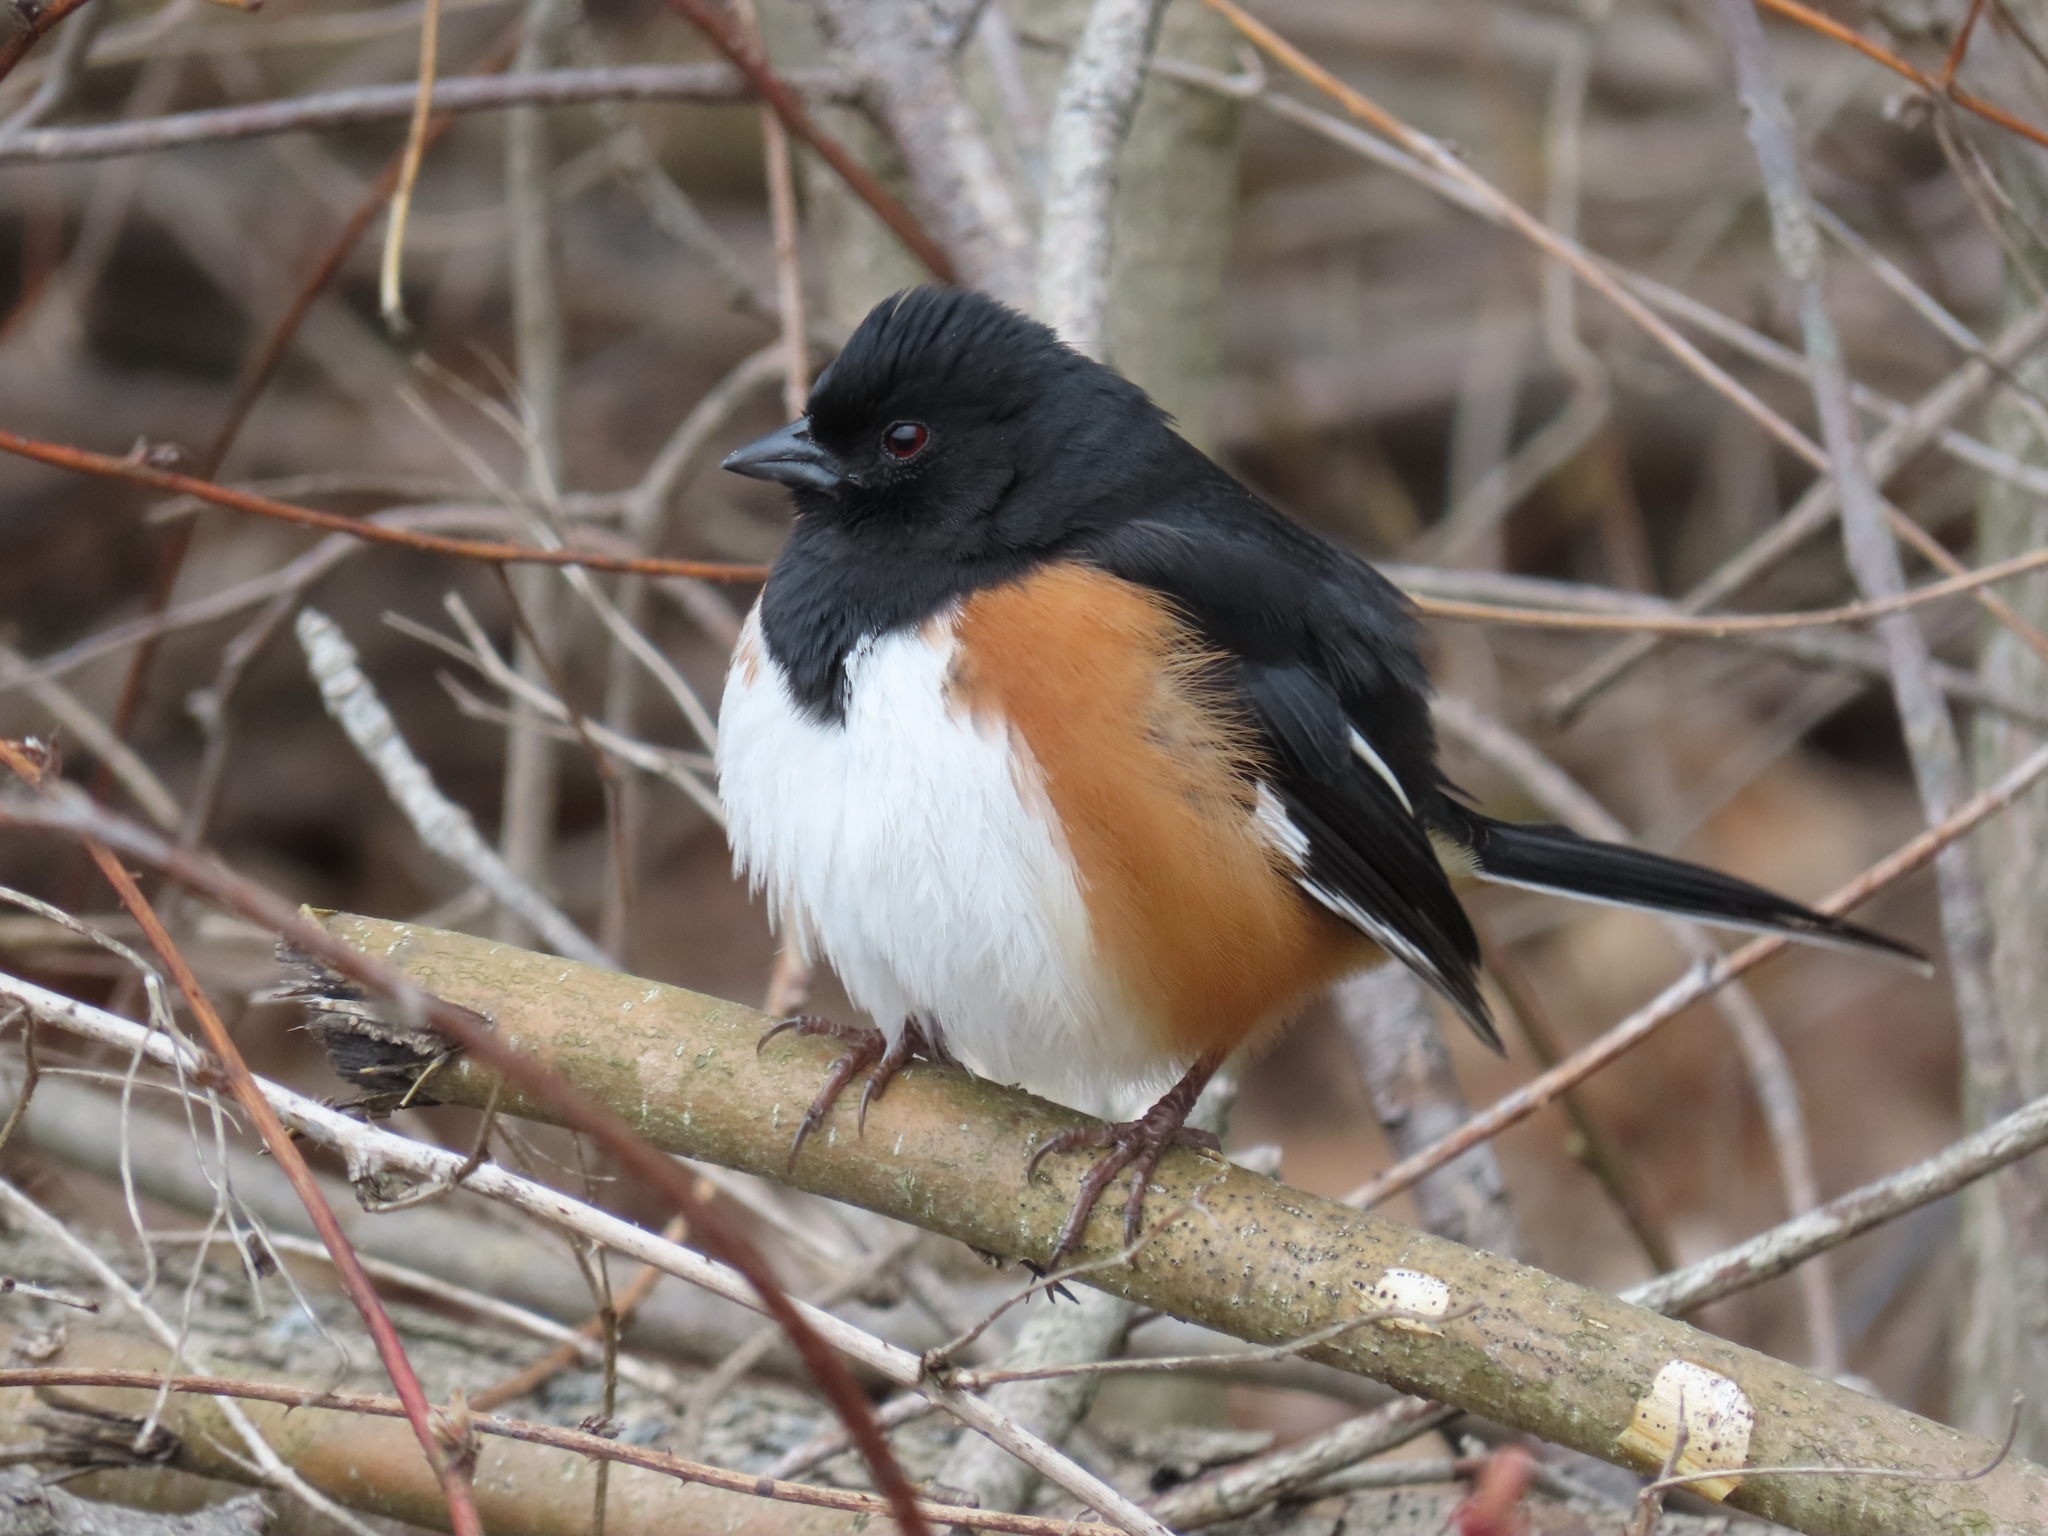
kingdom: Animalia
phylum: Chordata
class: Aves
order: Passeriformes
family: Passerellidae
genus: Pipilo
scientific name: Pipilo erythrophthalmus
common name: Eastern towhee
